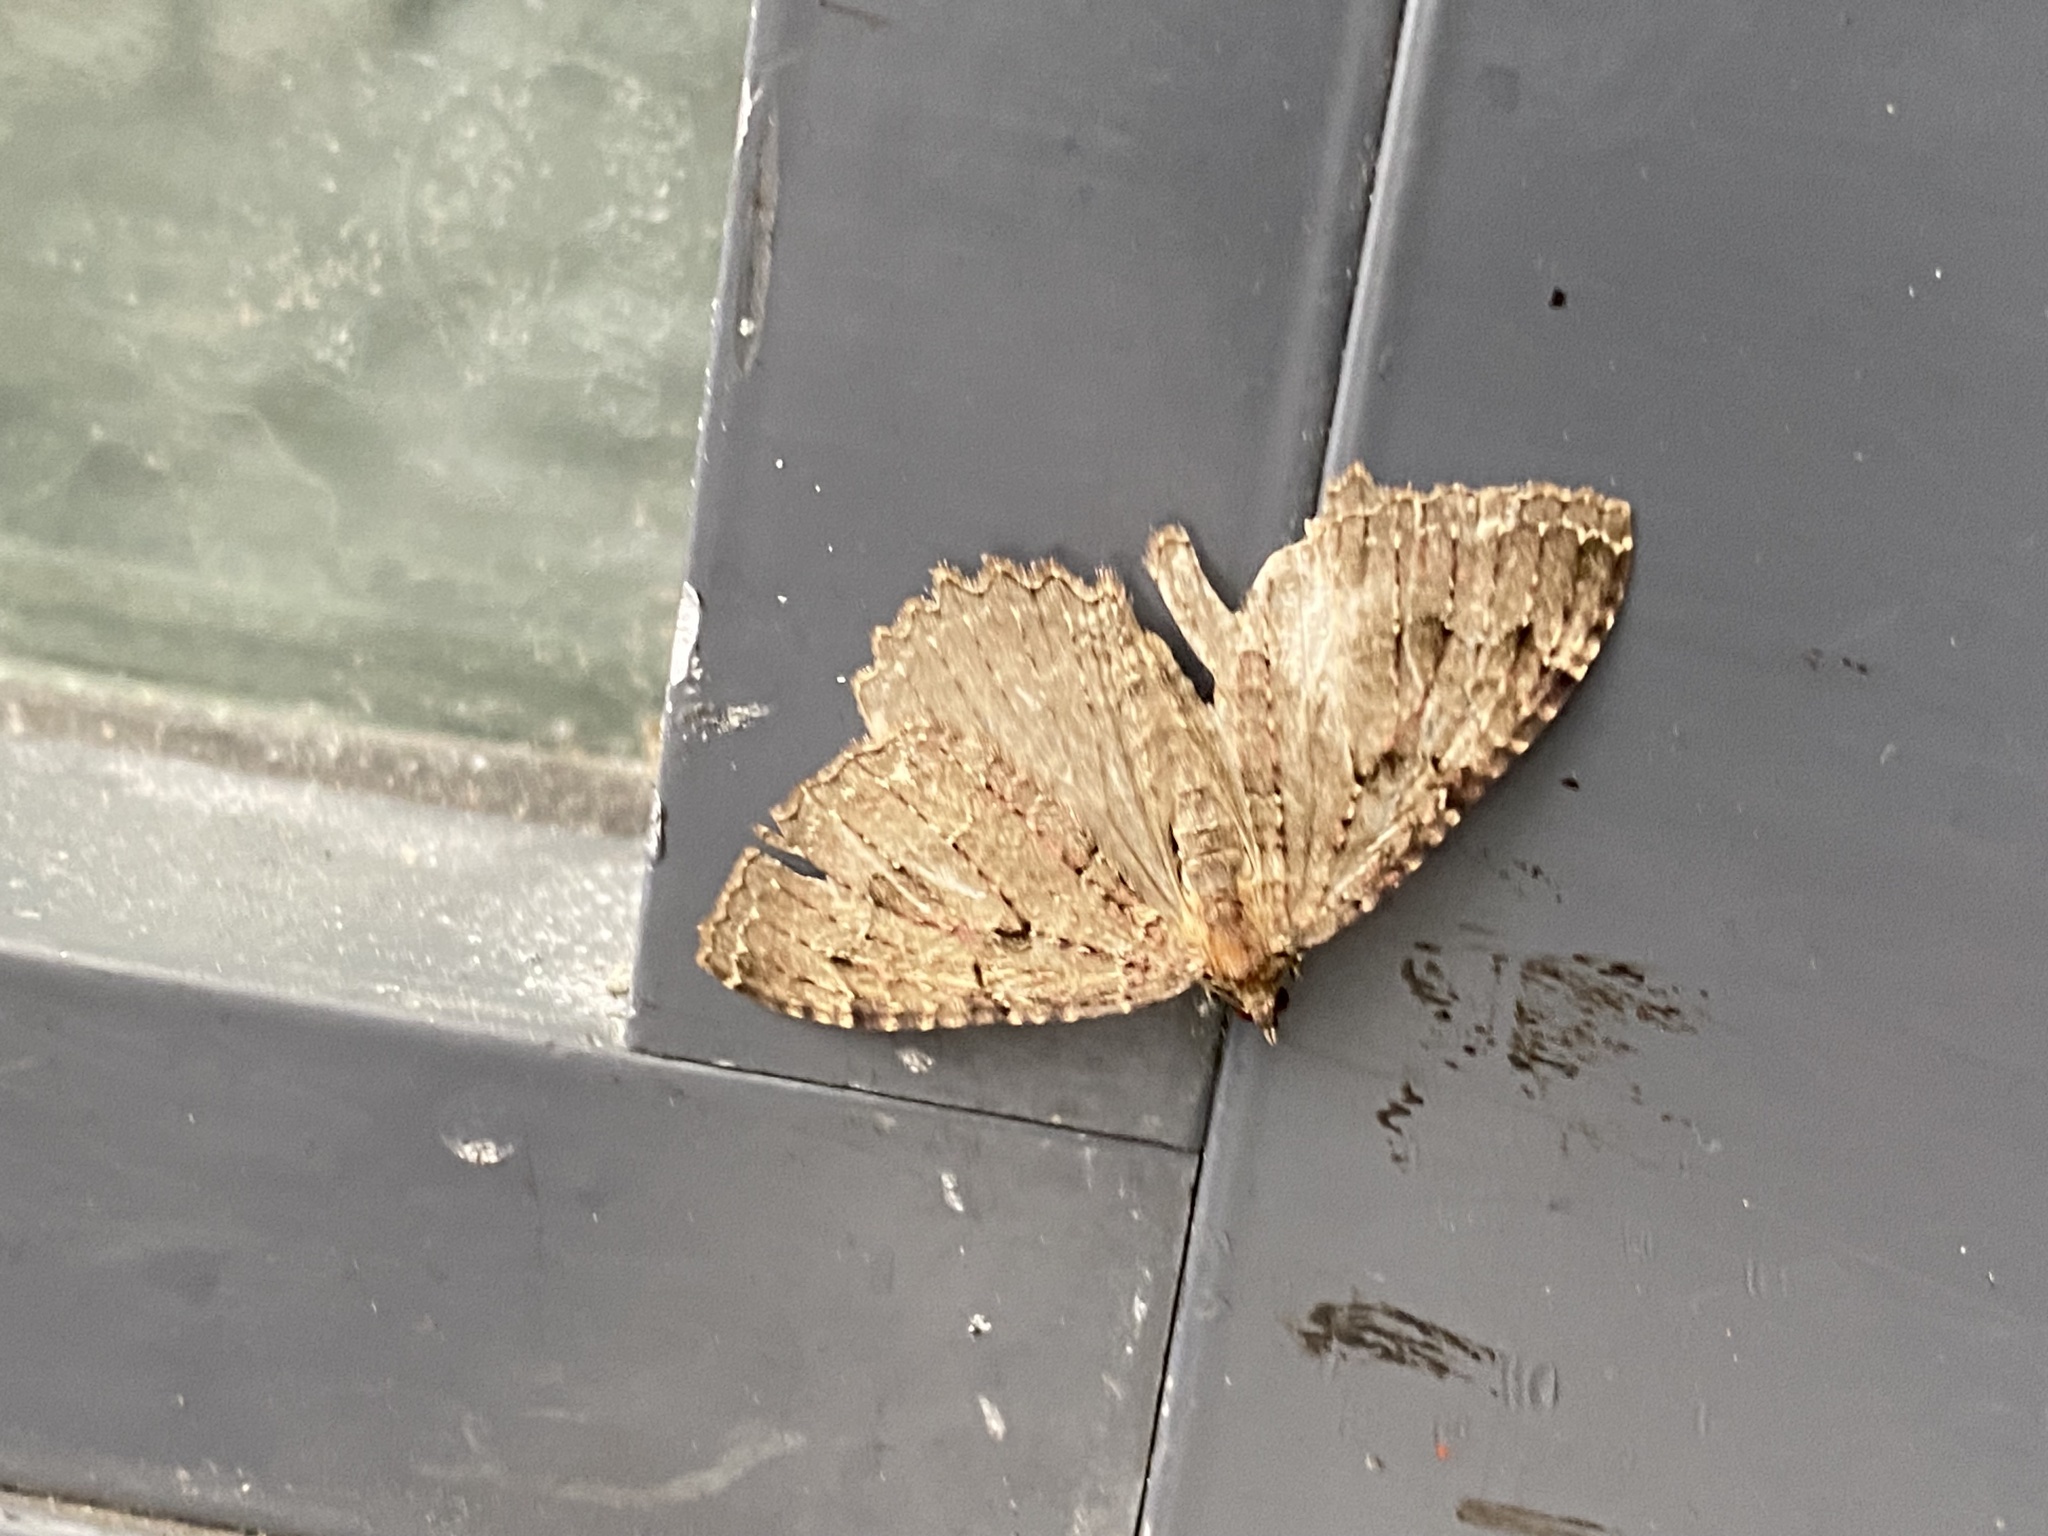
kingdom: Animalia
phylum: Arthropoda
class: Insecta
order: Lepidoptera
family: Geometridae
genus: Triphosa
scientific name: Triphosa dubitata
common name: Tissue
